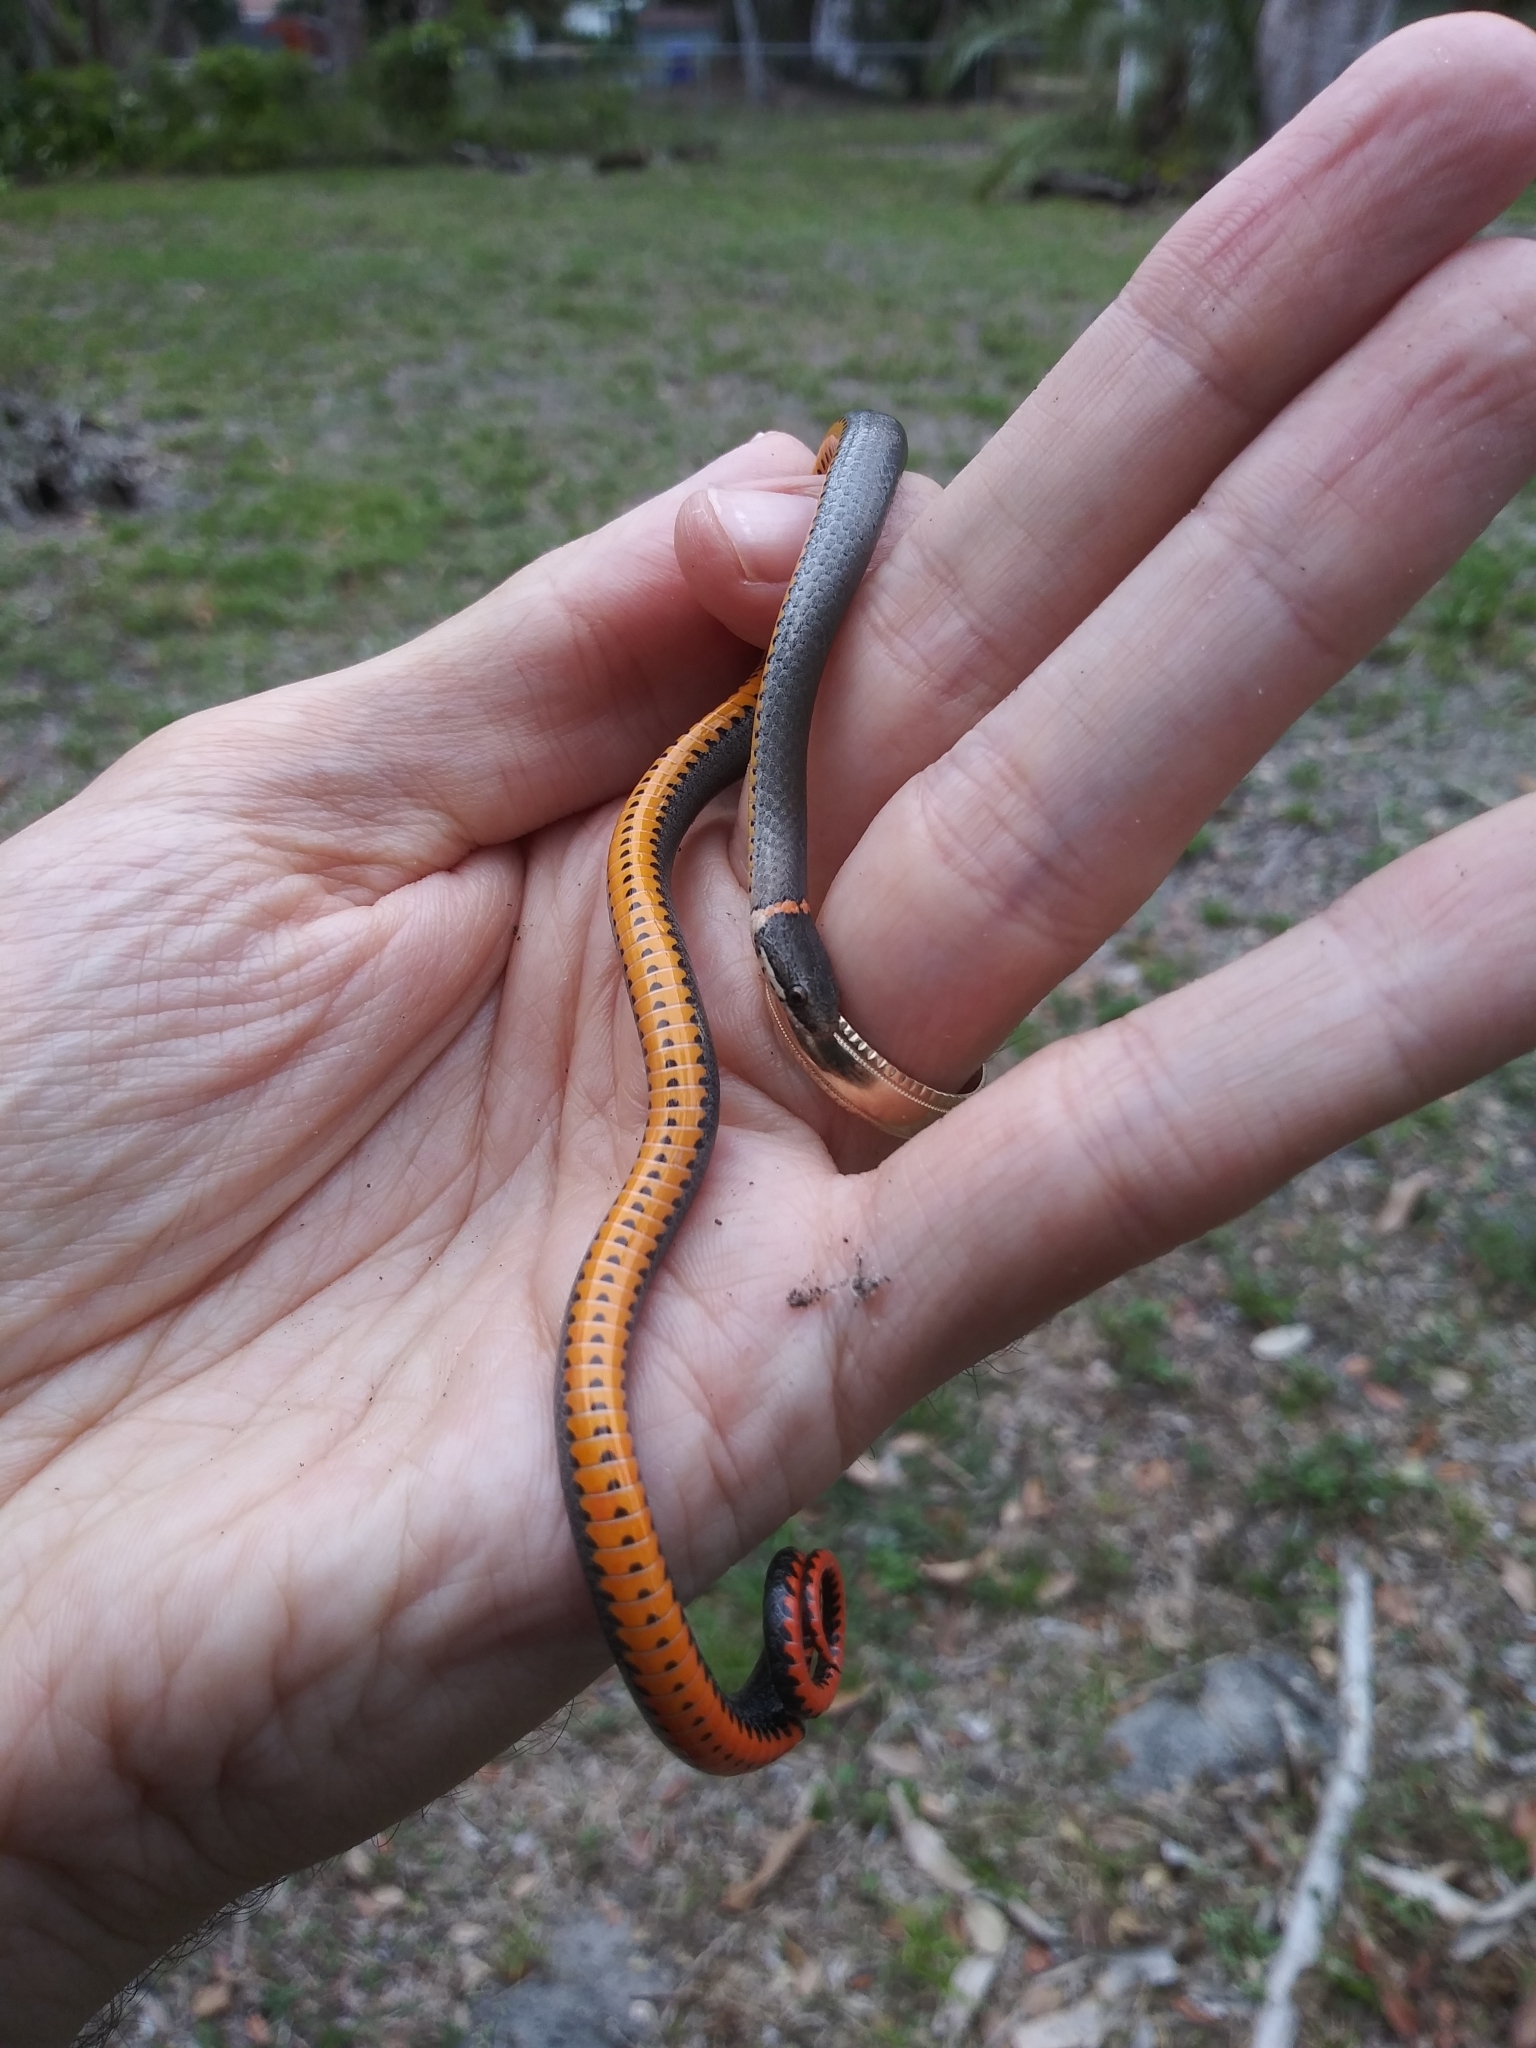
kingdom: Animalia
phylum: Chordata
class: Squamata
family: Colubridae
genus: Diadophis
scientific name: Diadophis punctatus
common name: Ringneck snake
